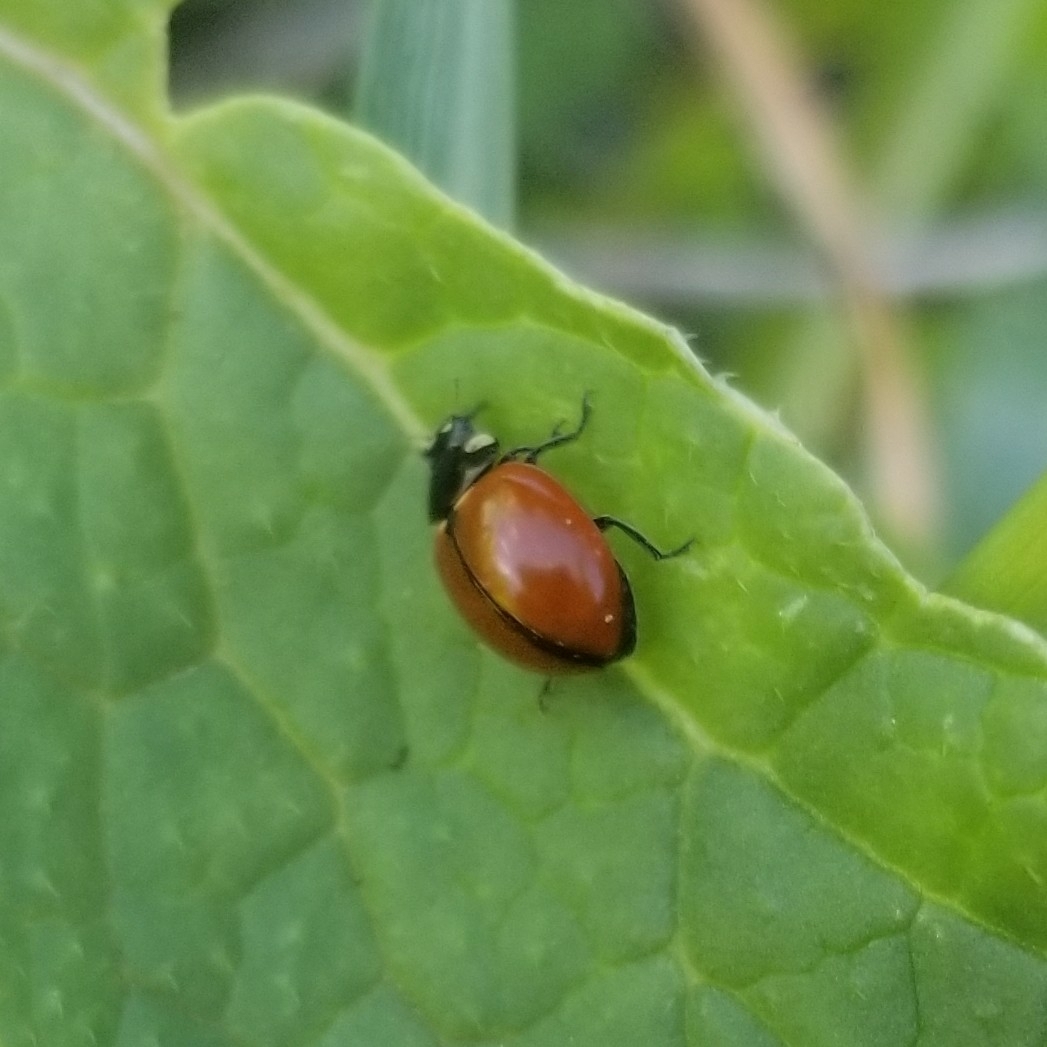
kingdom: Animalia
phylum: Arthropoda
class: Insecta
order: Coleoptera
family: Coccinellidae
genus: Coccinella
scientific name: Coccinella californica
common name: Lady beetle
